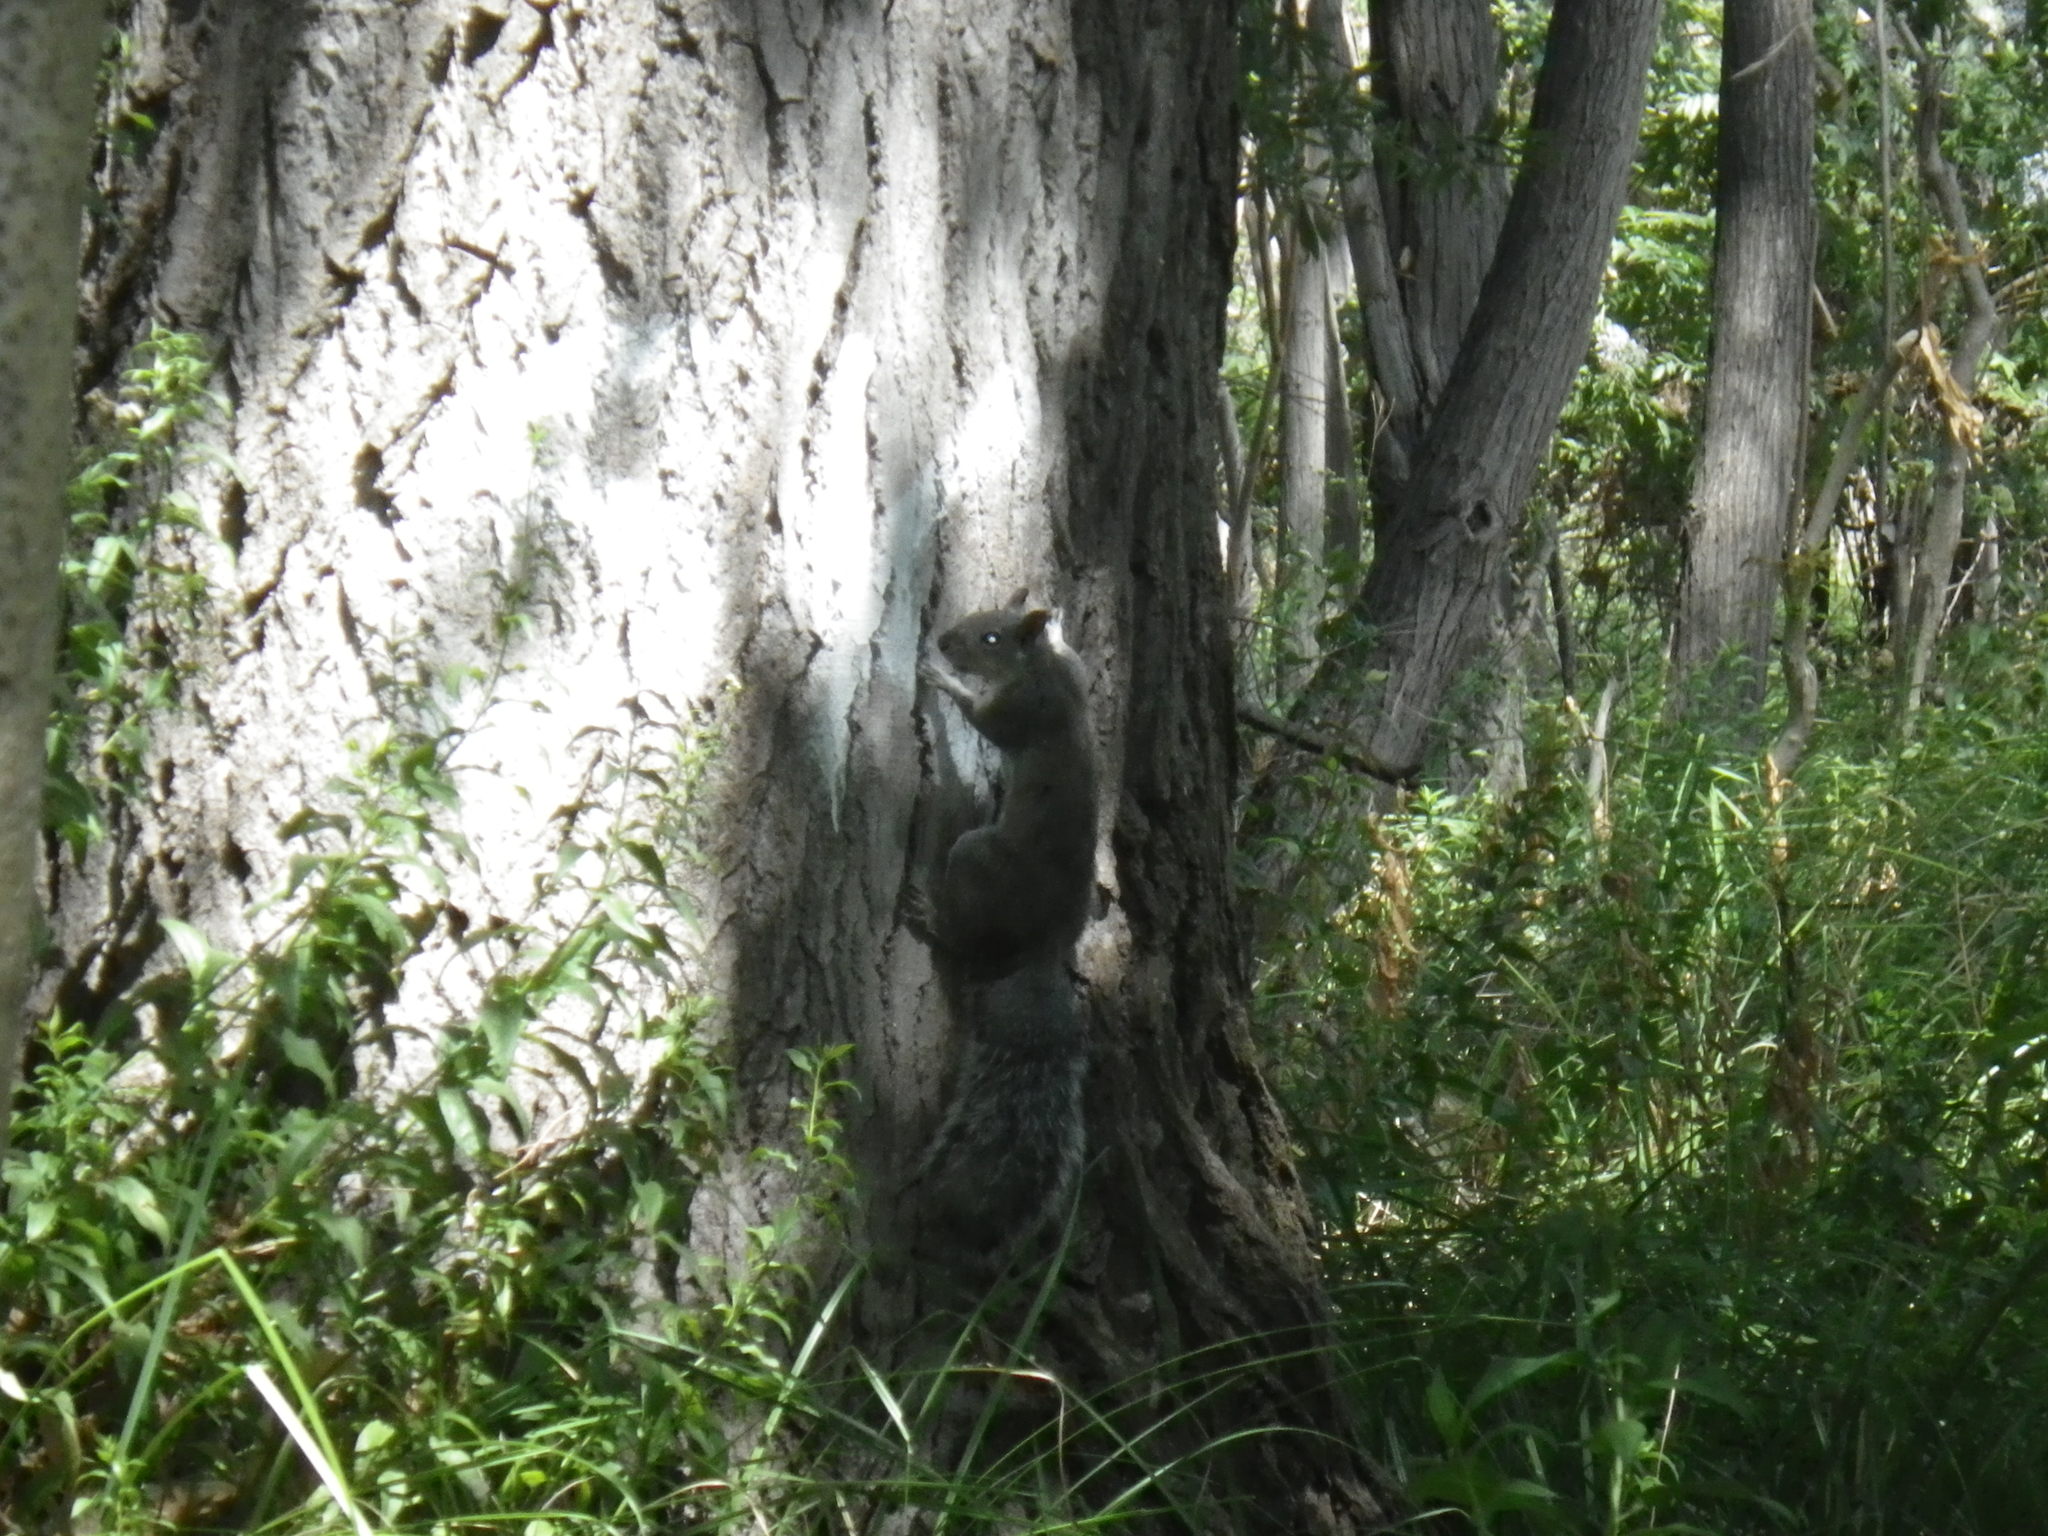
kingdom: Animalia
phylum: Chordata
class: Mammalia
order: Rodentia
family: Sciuridae
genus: Sciurus
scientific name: Sciurus griseus
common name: Western gray squirrel
